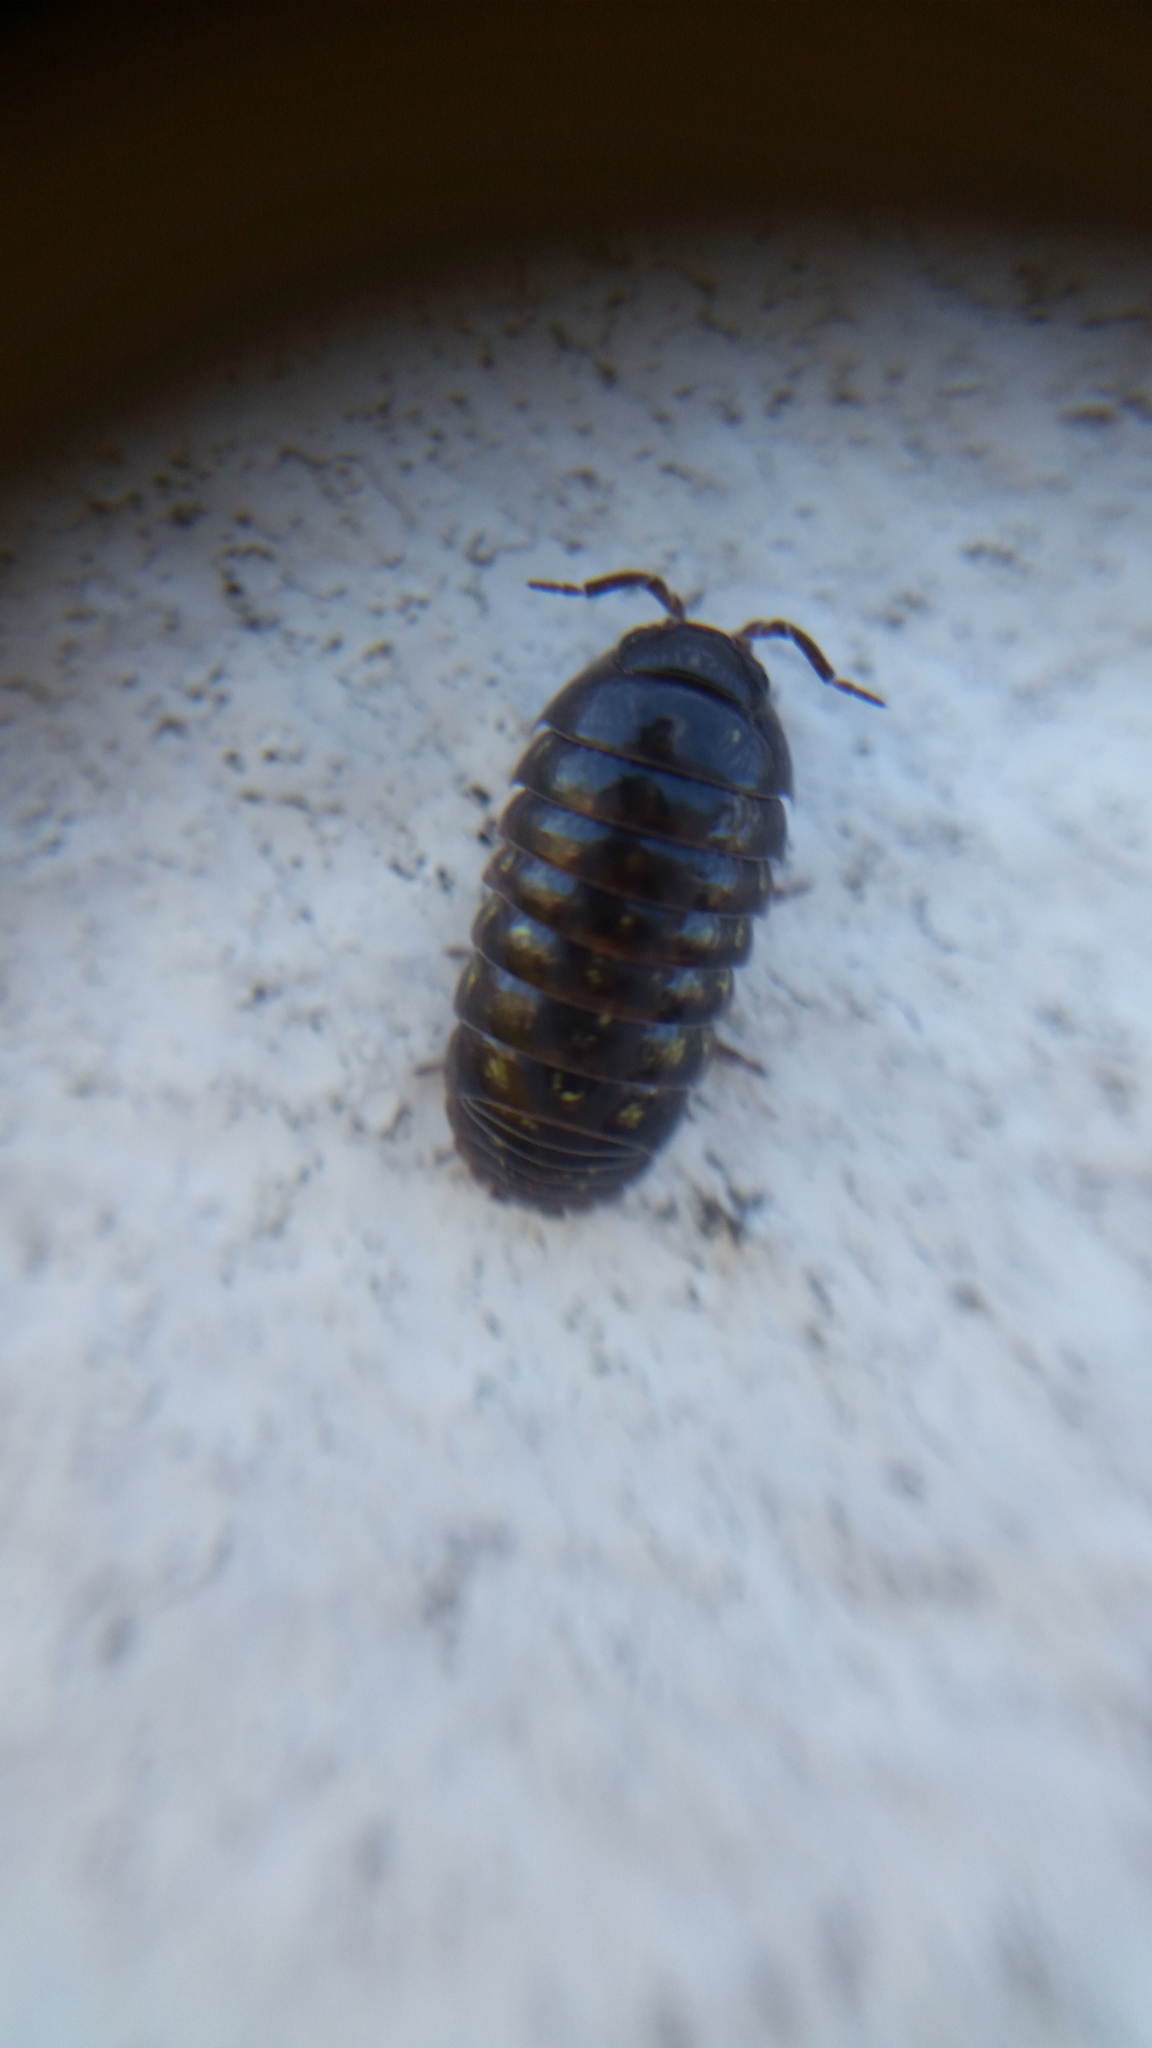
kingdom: Animalia
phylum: Arthropoda
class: Malacostraca
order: Isopoda
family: Armadillidiidae
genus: Armadillidium
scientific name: Armadillidium vulgare
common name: Common pill woodlouse
